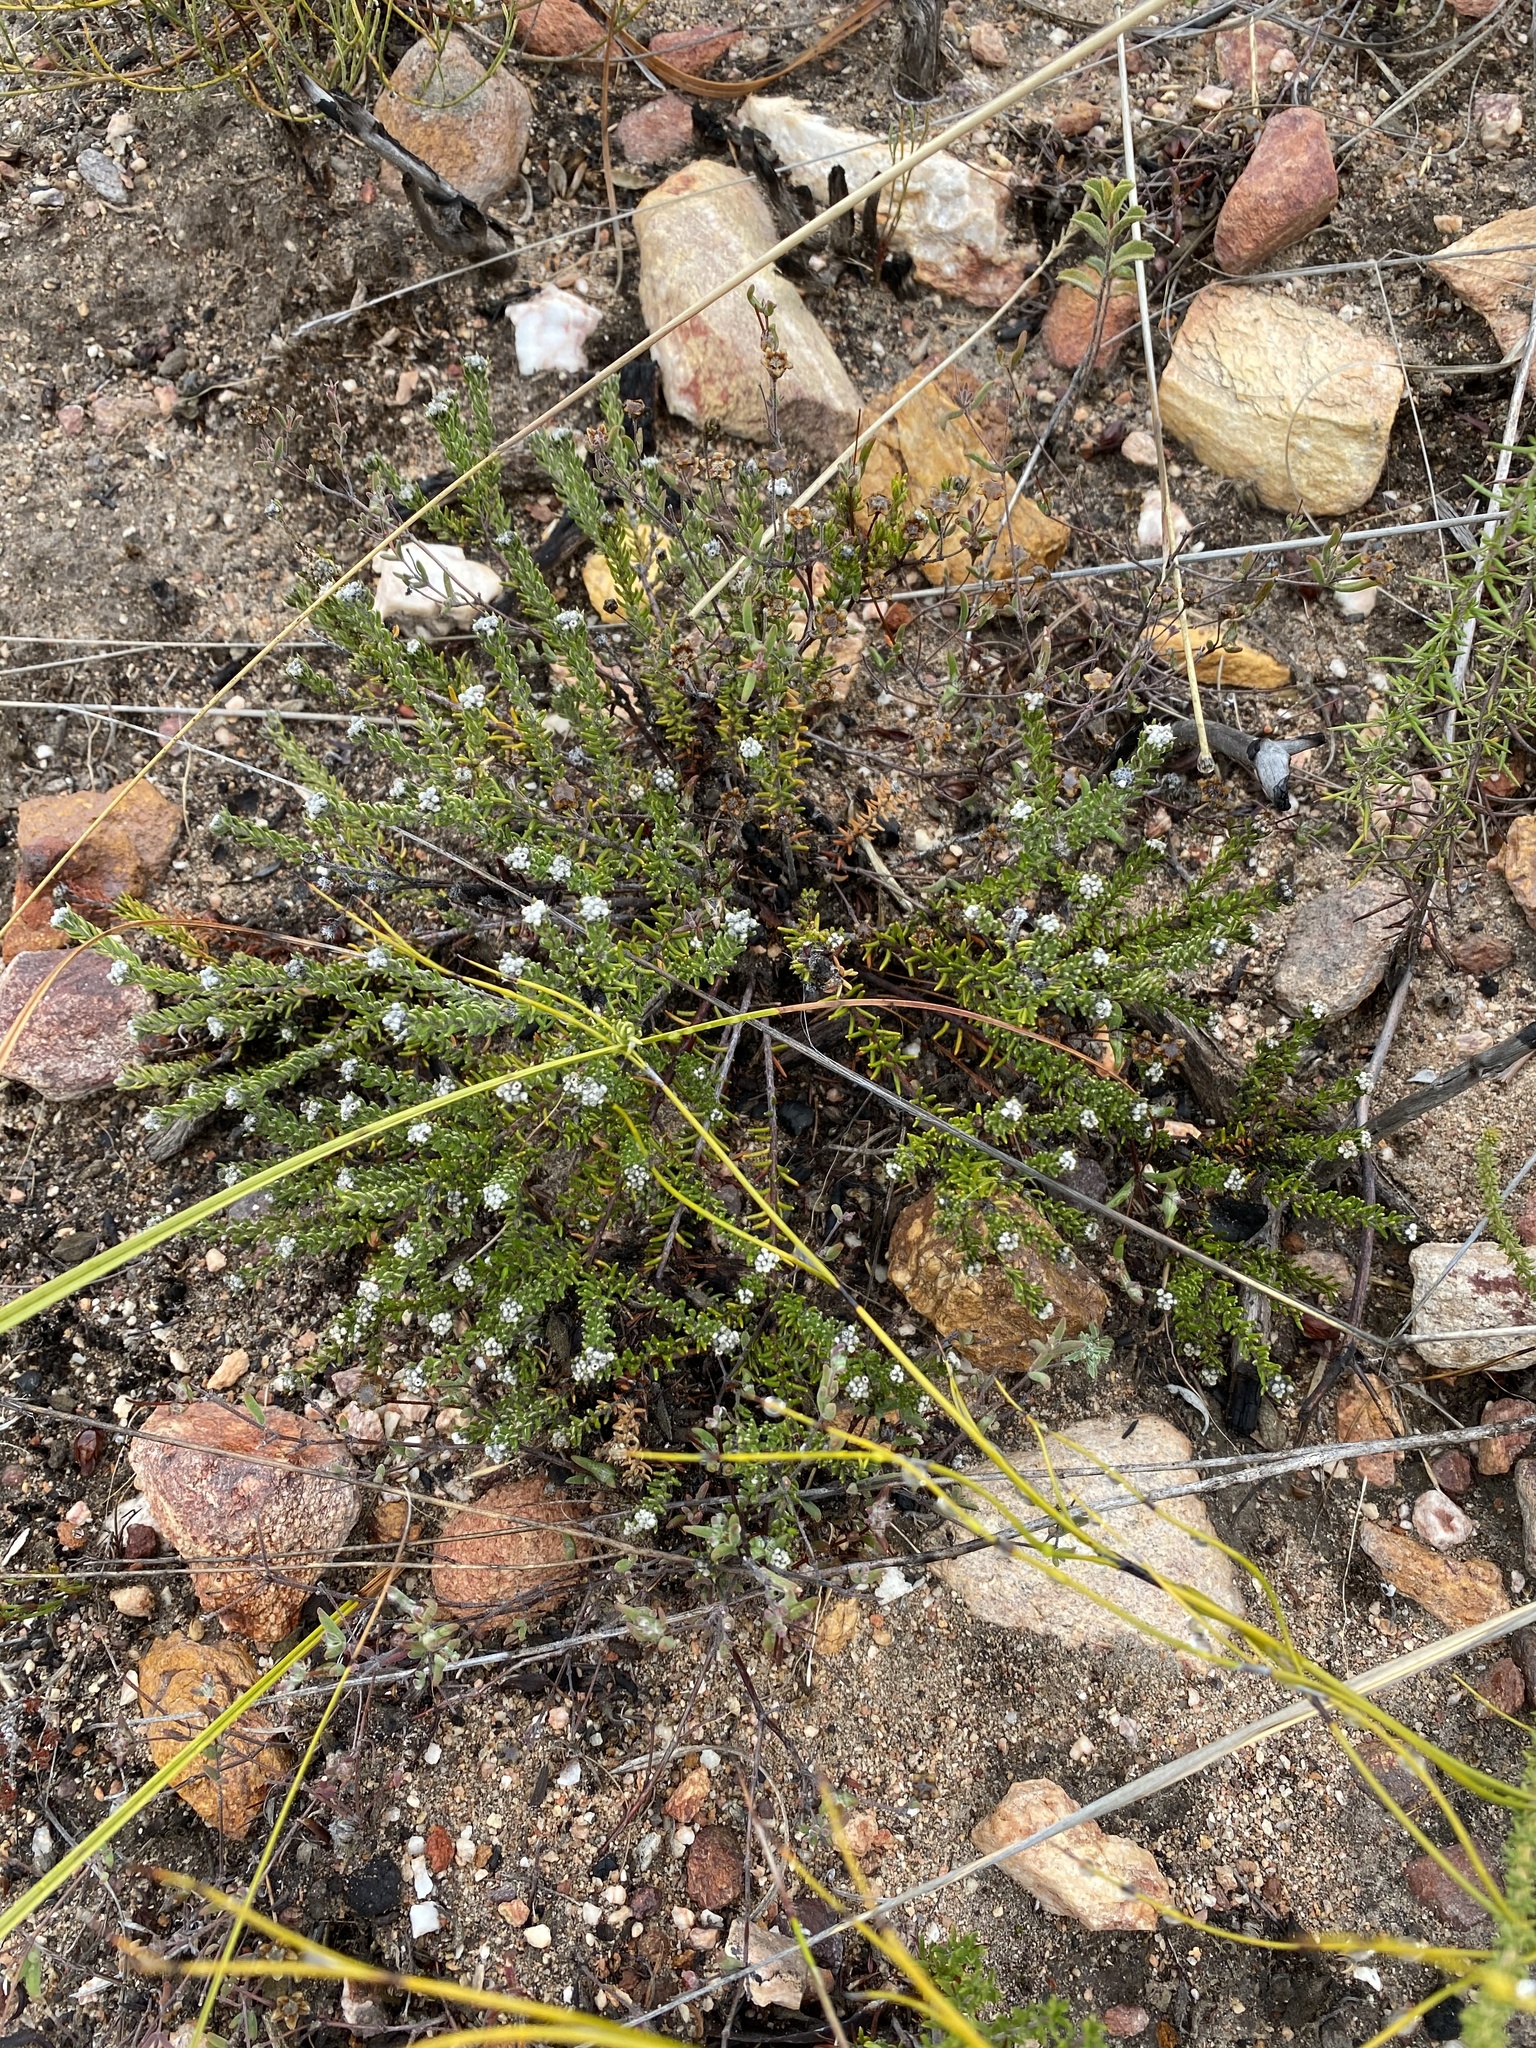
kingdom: Plantae
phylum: Tracheophyta
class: Magnoliopsida
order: Rosales
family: Rhamnaceae
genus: Phylica
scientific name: Phylica karroica
